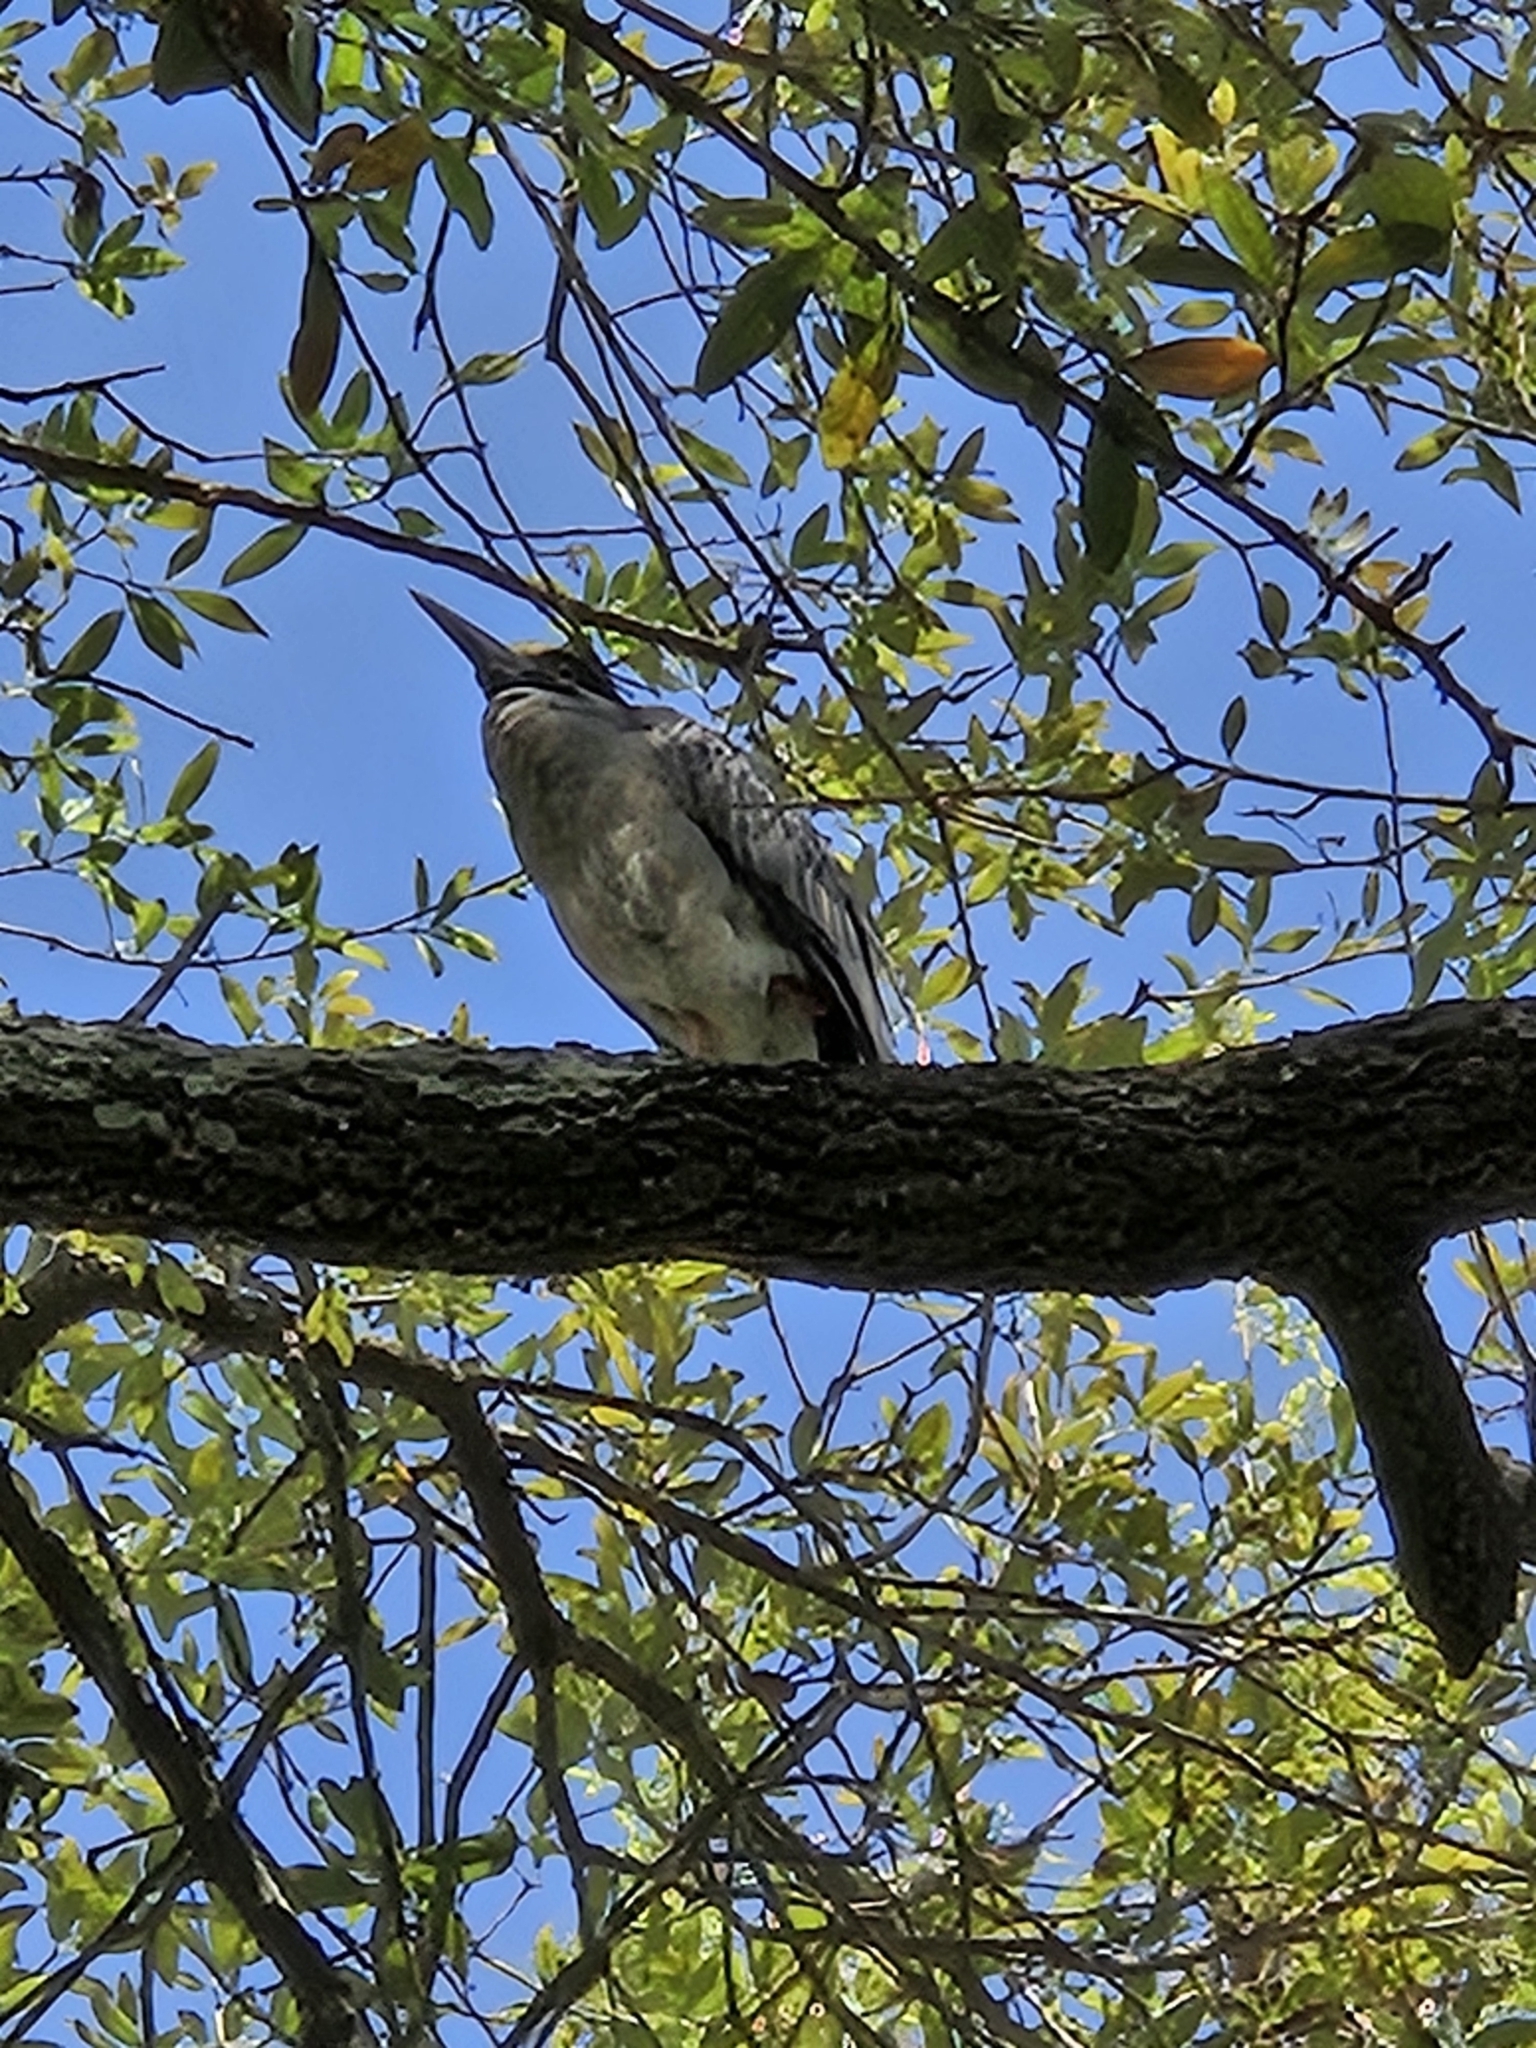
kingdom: Animalia
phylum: Chordata
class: Aves
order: Pelecaniformes
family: Ardeidae
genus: Nyctanassa
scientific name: Nyctanassa violacea
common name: Yellow-crowned night heron
